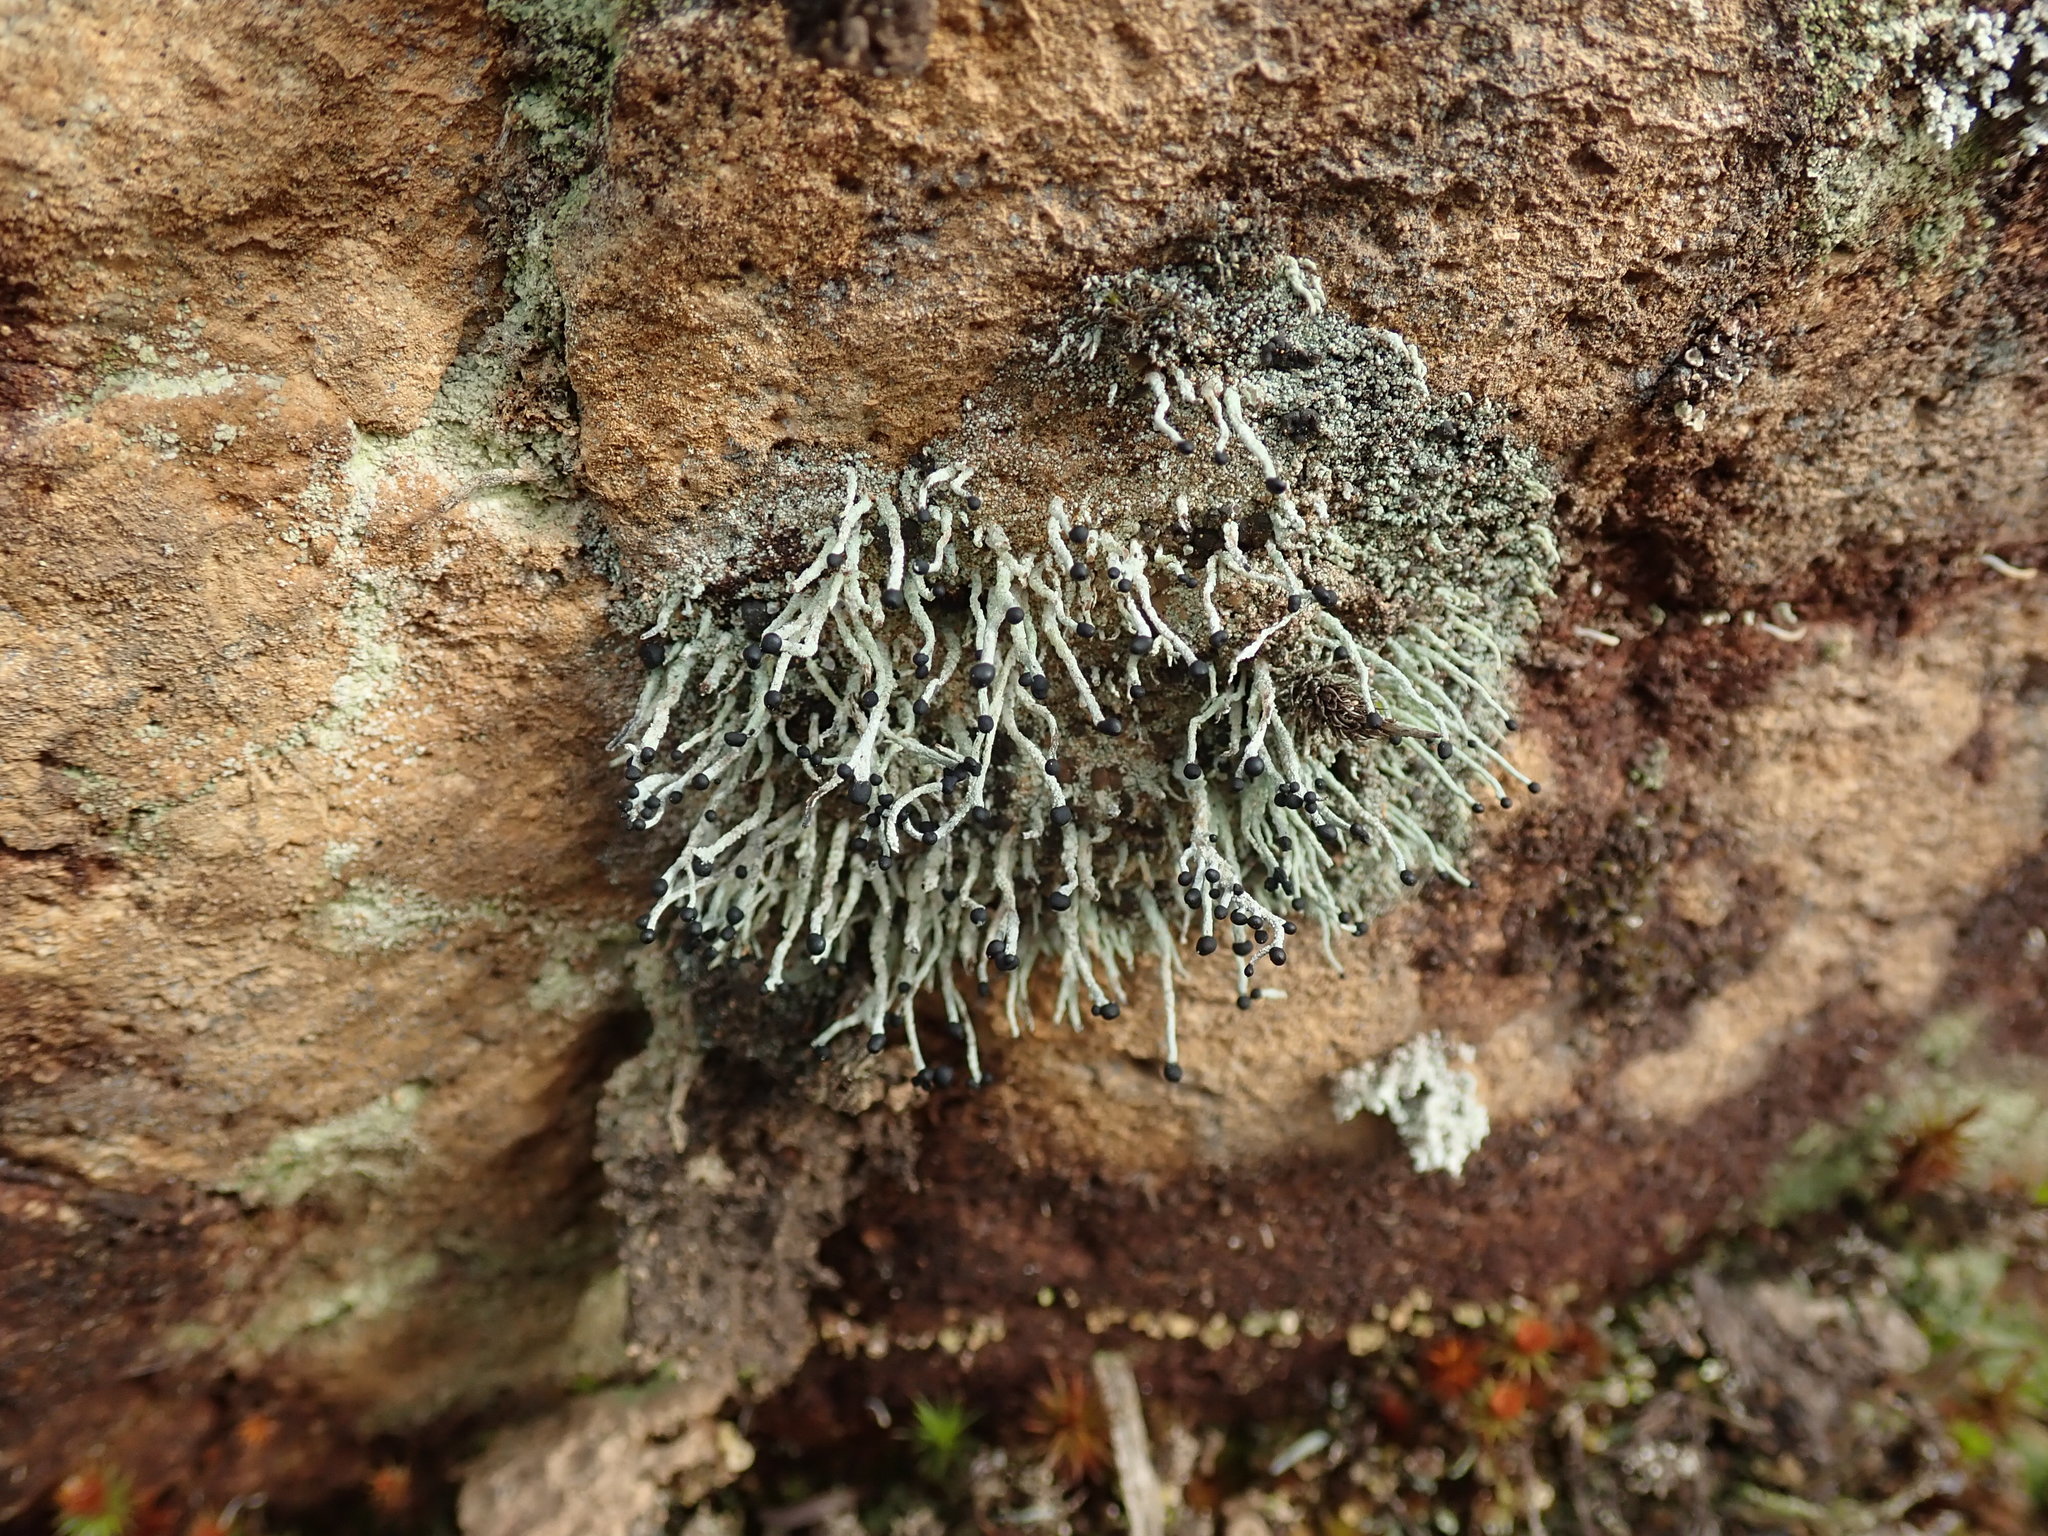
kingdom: Fungi
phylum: Ascomycota
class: Lecanoromycetes
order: Lecanorales
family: Cladoniaceae
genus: Pilophorus
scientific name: Pilophorus acicularis
